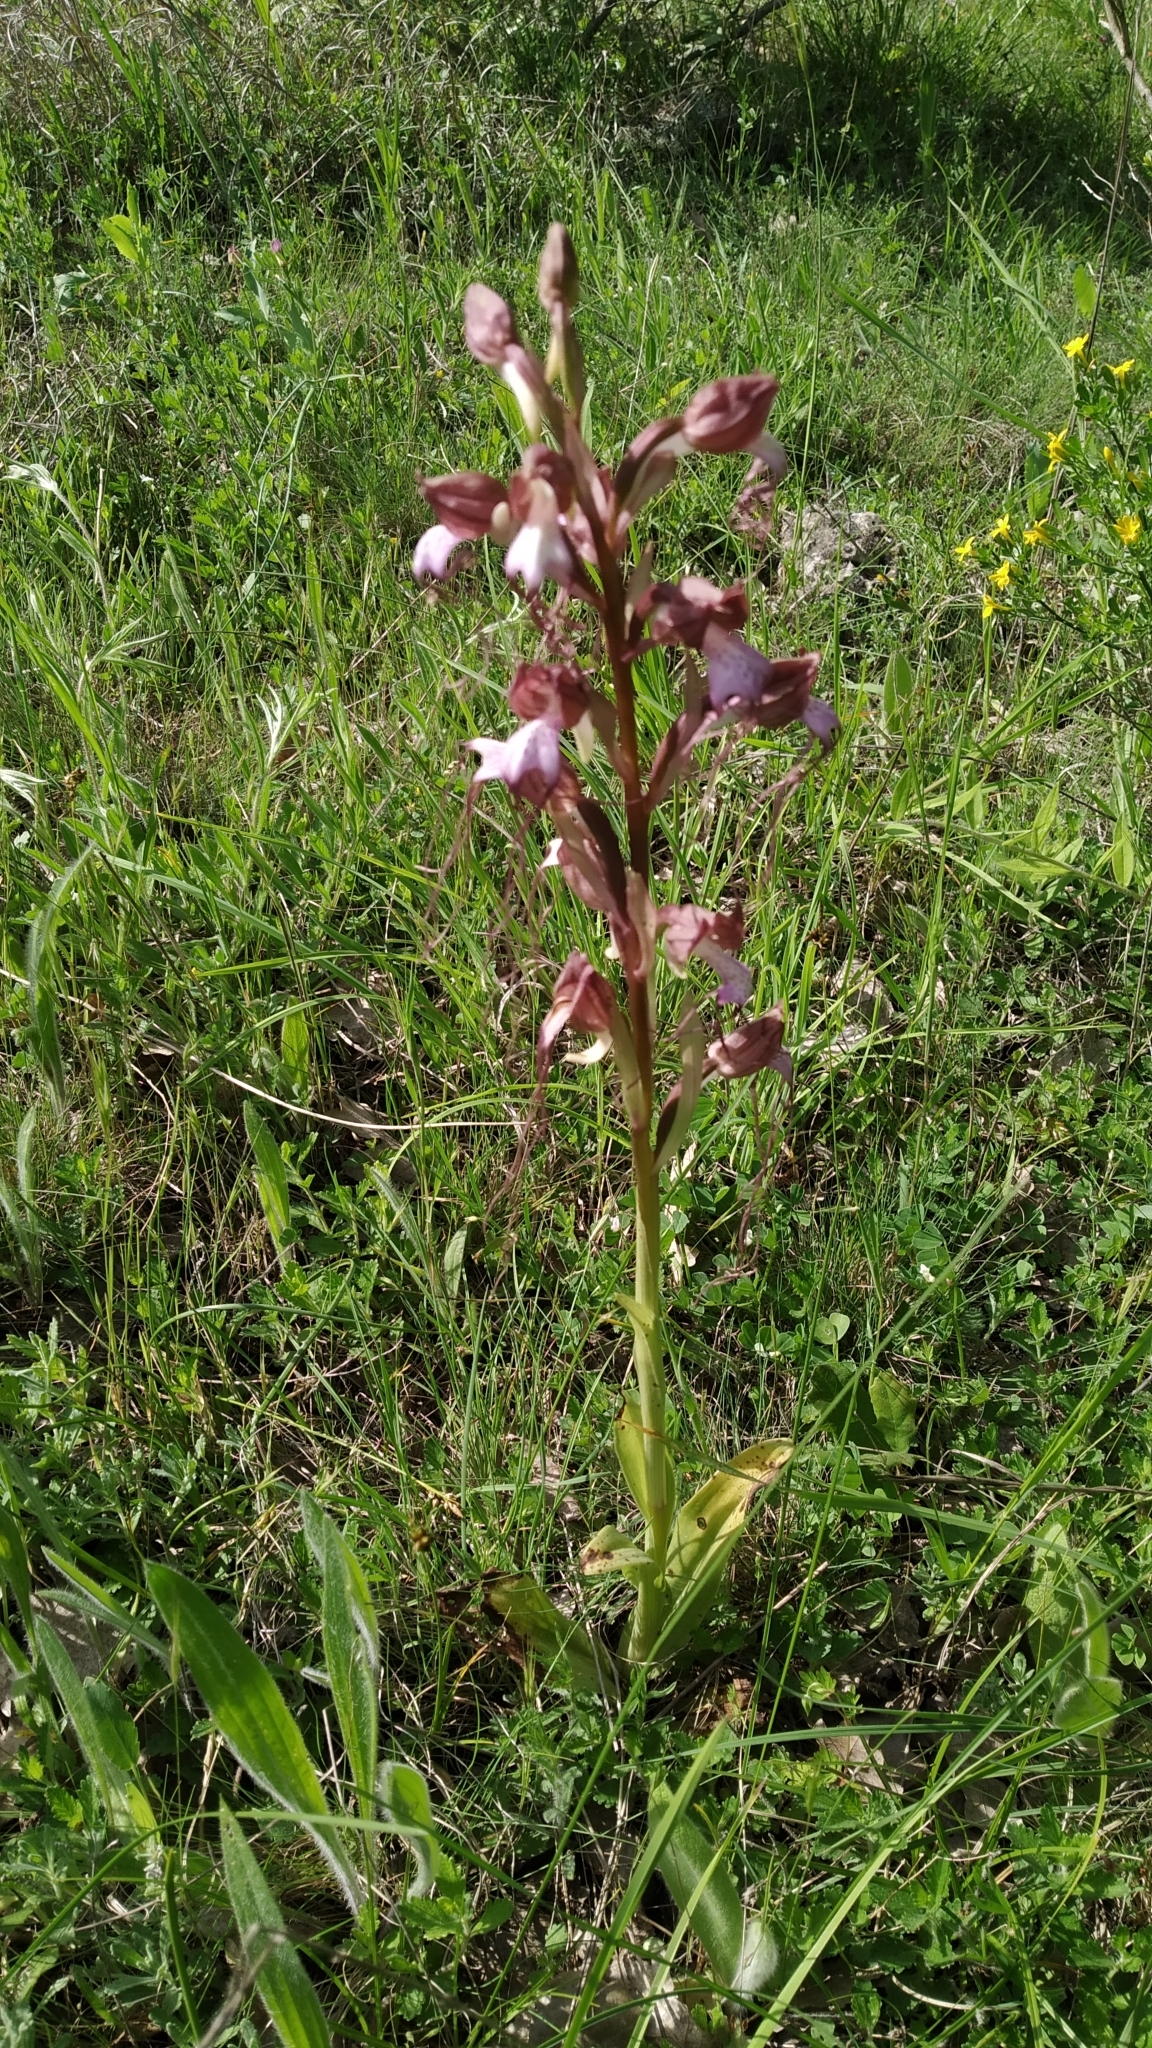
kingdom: Plantae
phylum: Tracheophyta
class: Liliopsida
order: Asparagales
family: Orchidaceae
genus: Himantoglossum
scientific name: Himantoglossum comperianum
